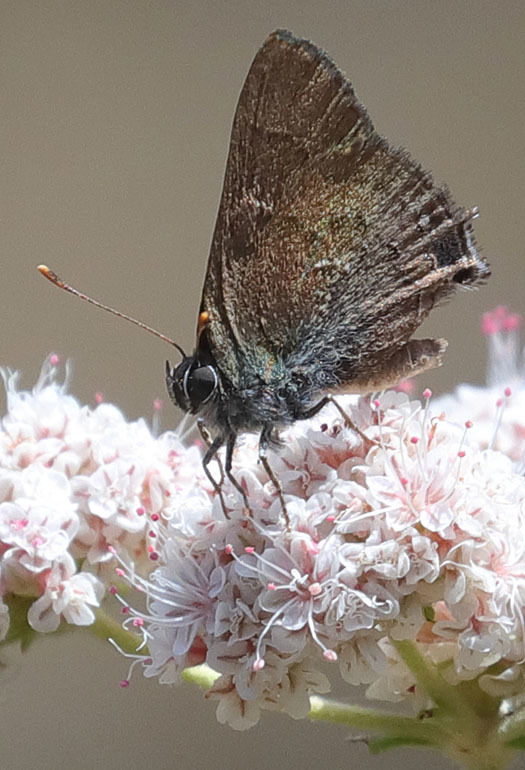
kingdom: Animalia
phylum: Arthropoda
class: Insecta
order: Lepidoptera
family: Lycaenidae
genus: Strymon
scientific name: Strymon saepium
